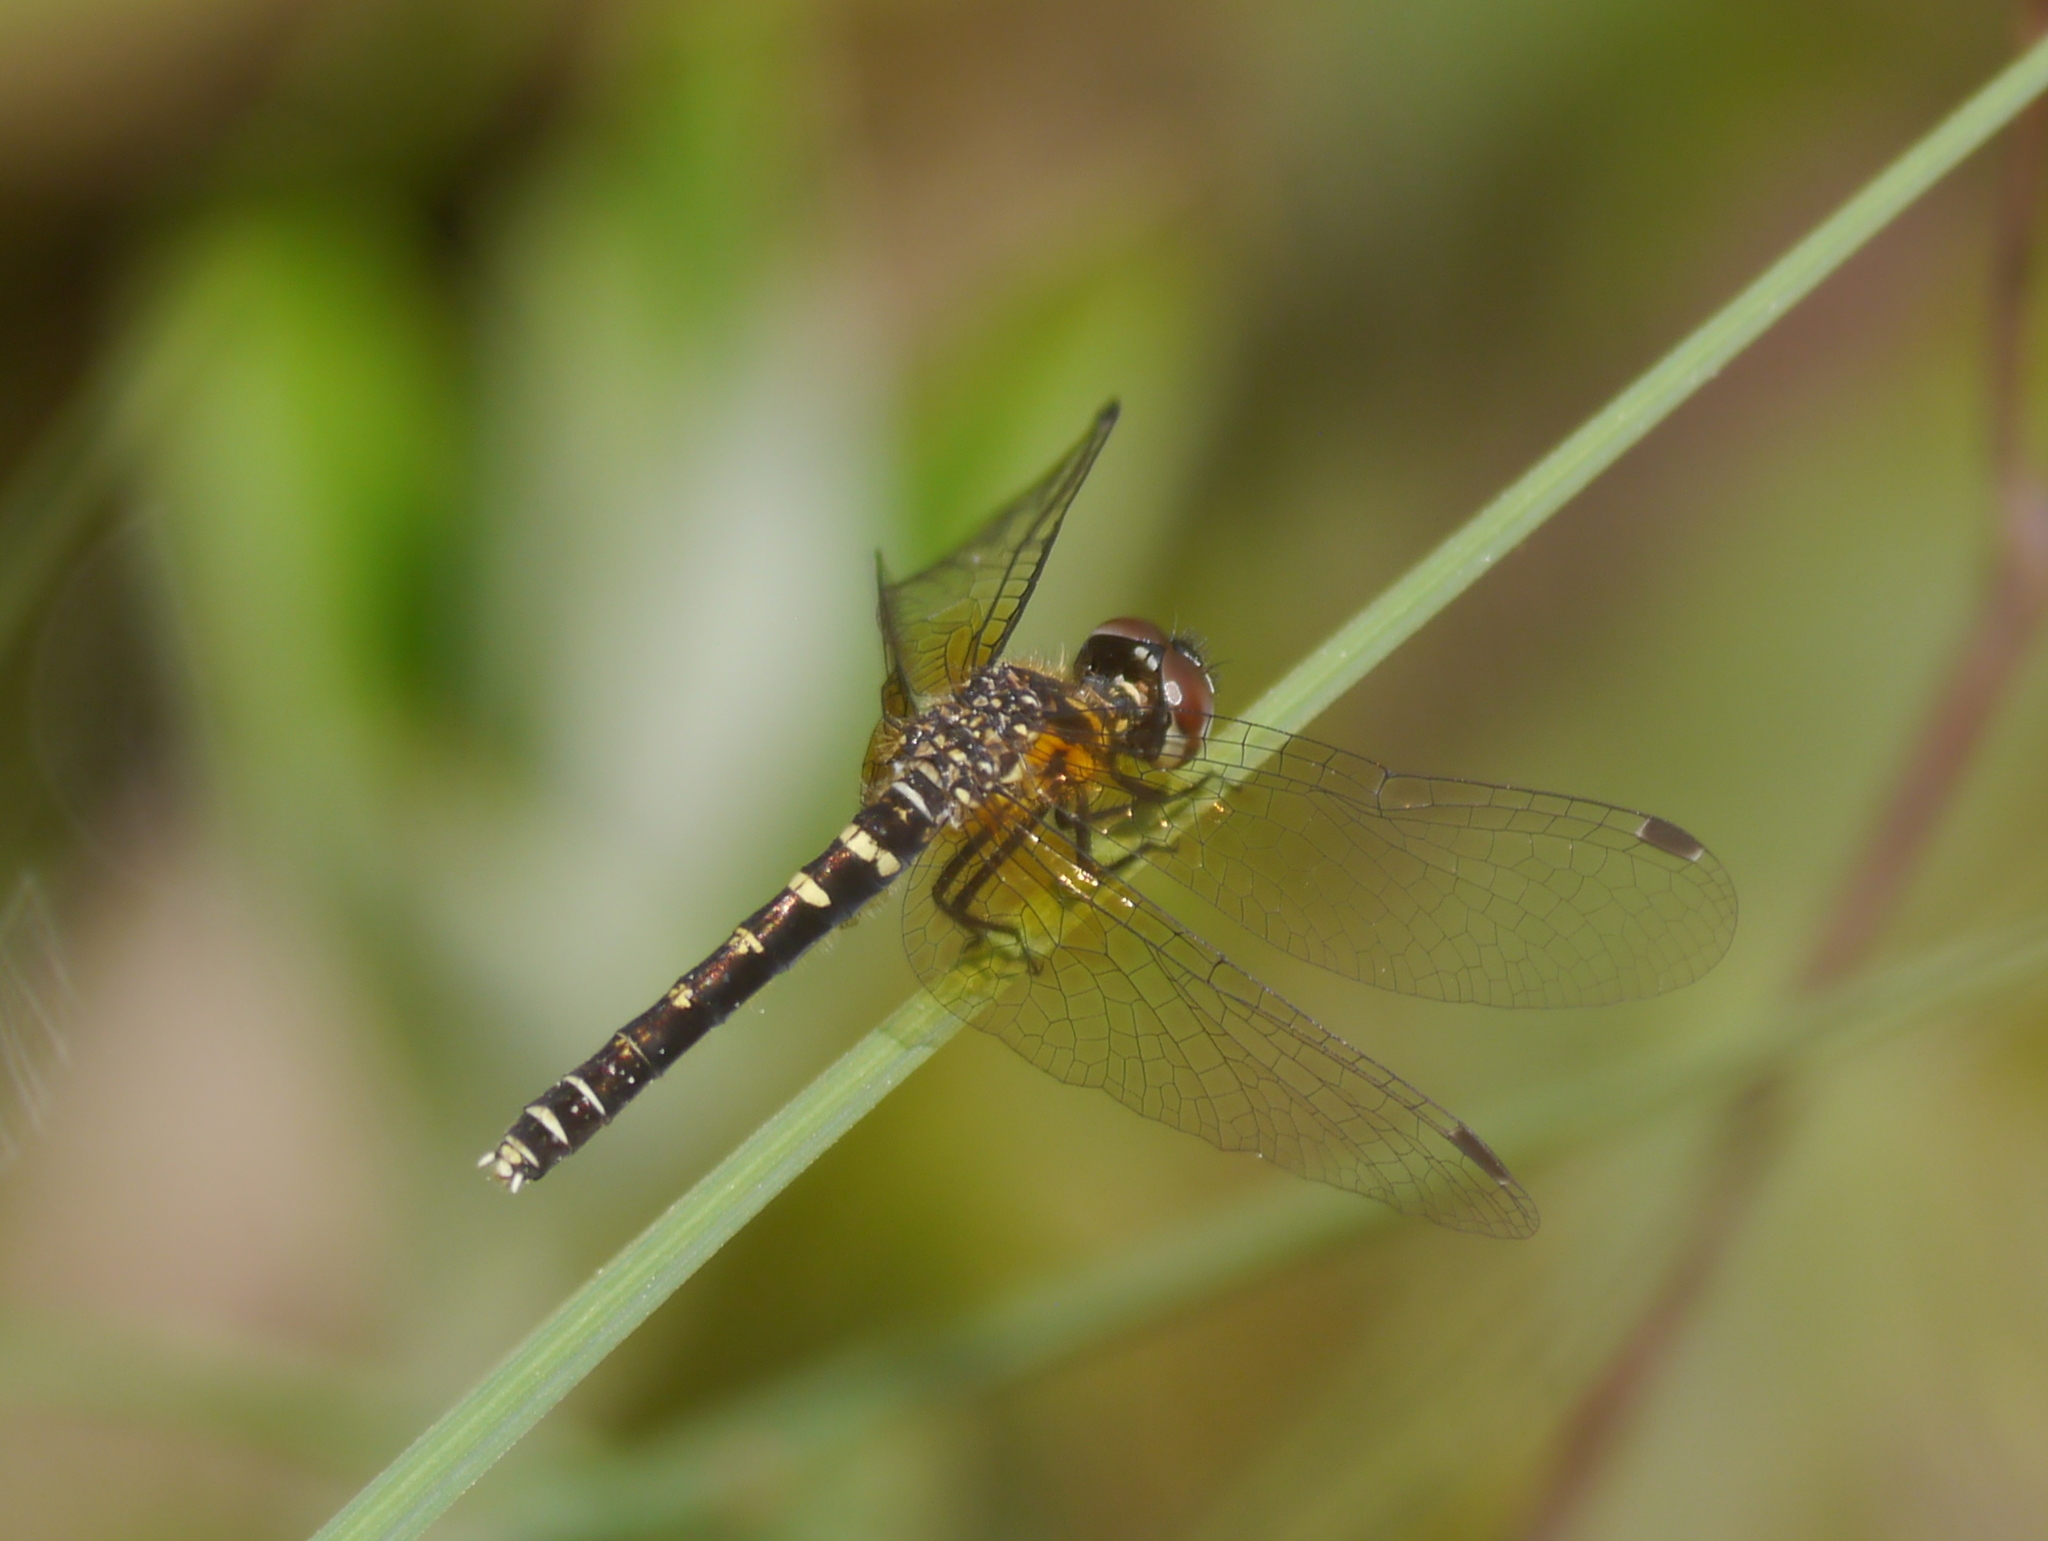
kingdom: Animalia
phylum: Arthropoda
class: Insecta
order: Odonata
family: Libellulidae
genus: Nannothemis
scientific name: Nannothemis bella
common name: Elfin skimmer
